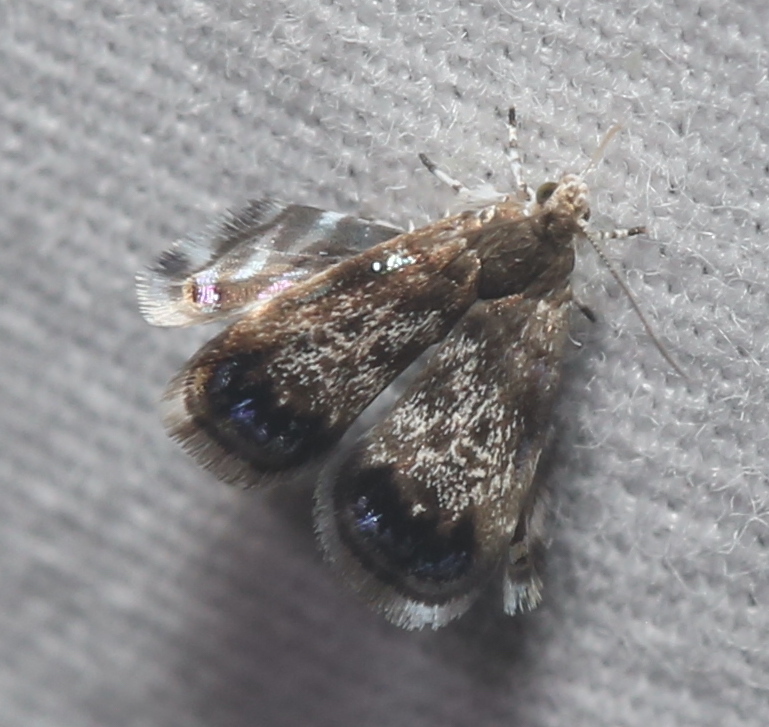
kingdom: Animalia
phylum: Arthropoda
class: Insecta
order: Lepidoptera
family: Choreutidae
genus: Brenthia
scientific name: Brenthia pavonacella
